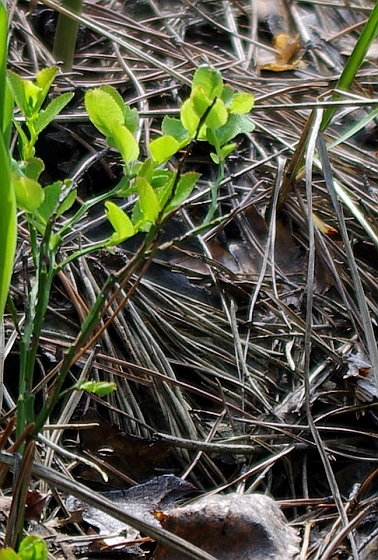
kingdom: Plantae
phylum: Tracheophyta
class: Magnoliopsida
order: Ericales
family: Ericaceae
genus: Vaccinium
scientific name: Vaccinium myrtillus
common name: Bilberry
